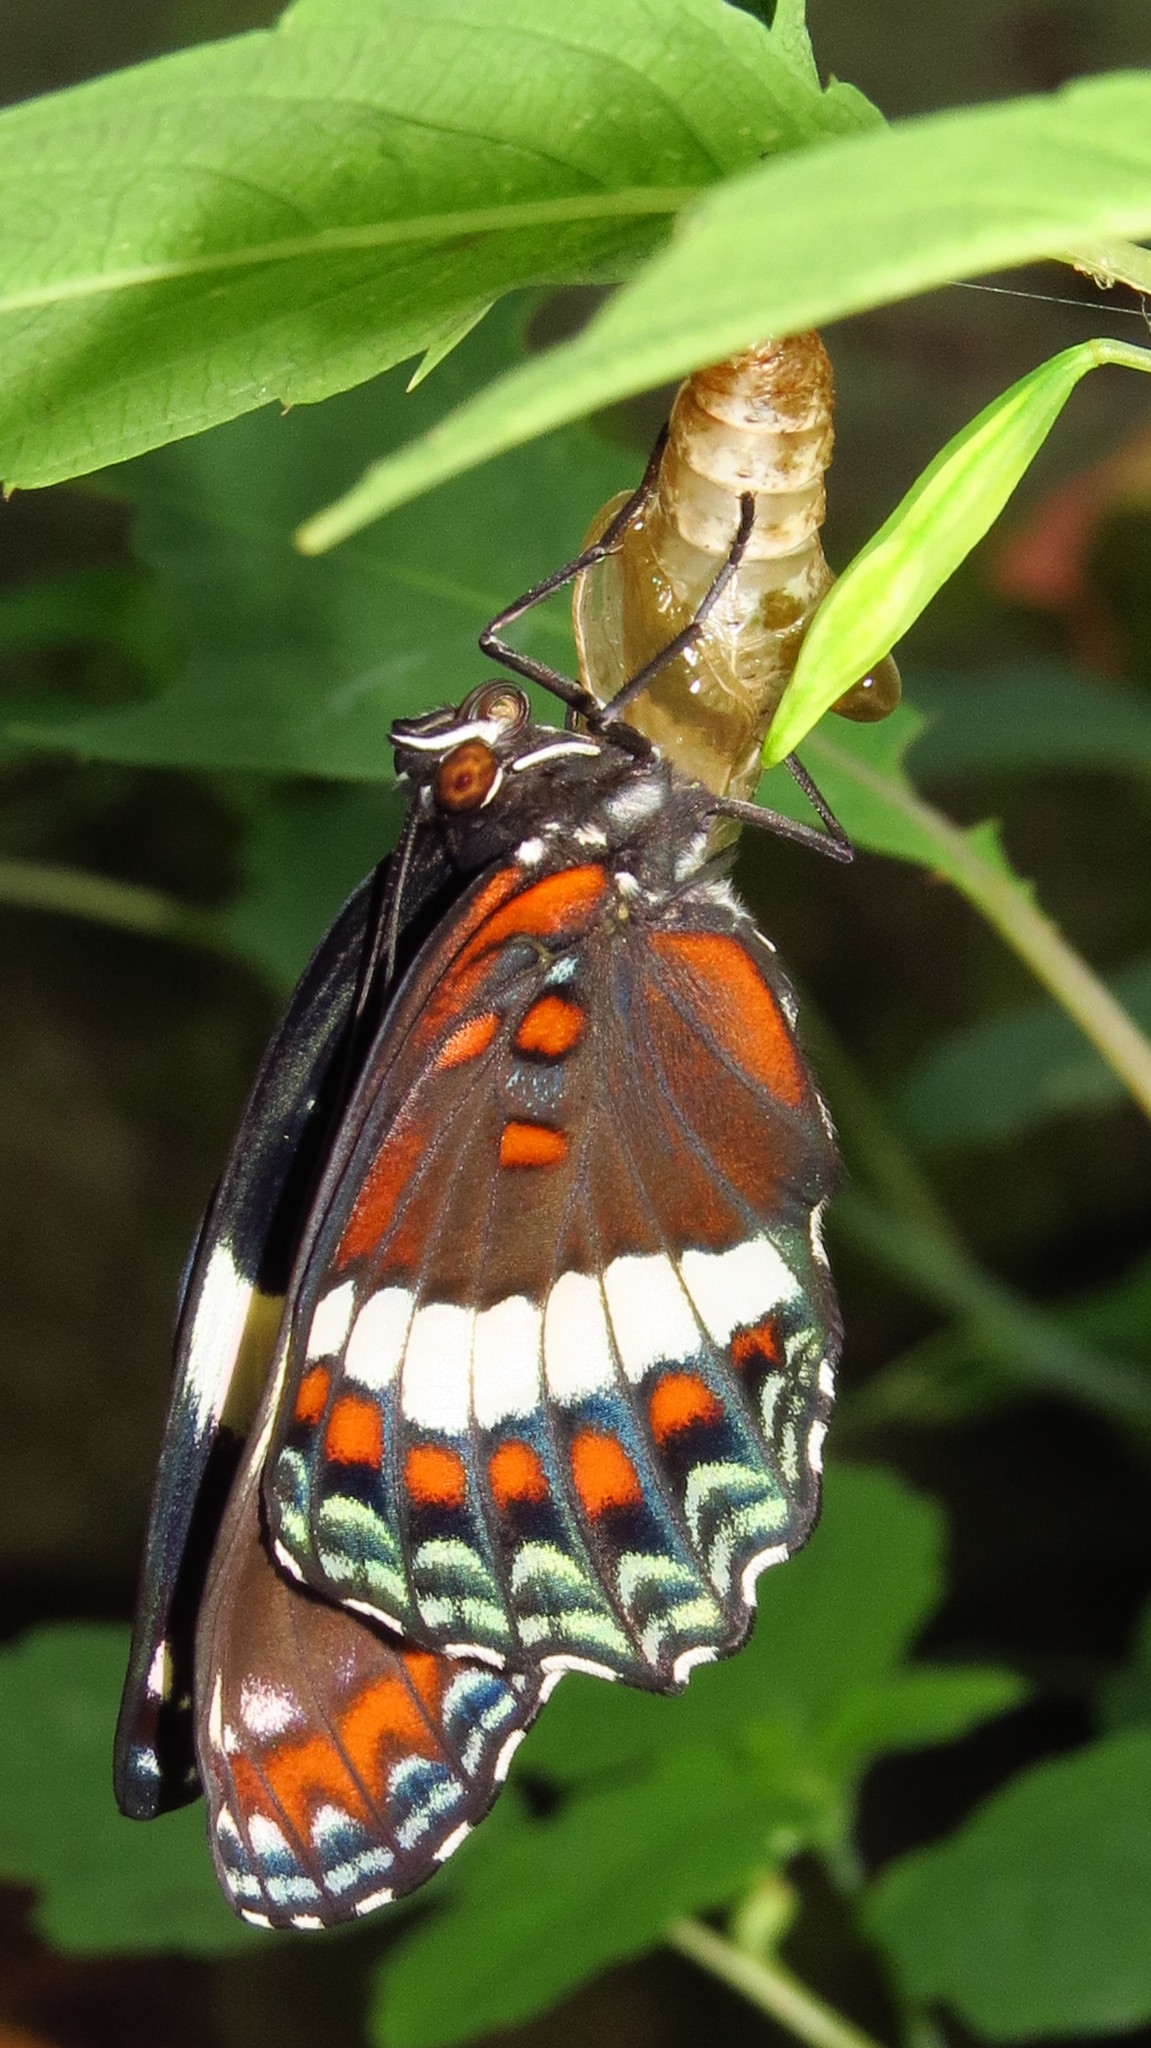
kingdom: Animalia
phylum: Arthropoda
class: Insecta
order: Lepidoptera
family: Nymphalidae
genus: Limenitis
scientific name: Limenitis arthemis
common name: Red-spotted admiral
